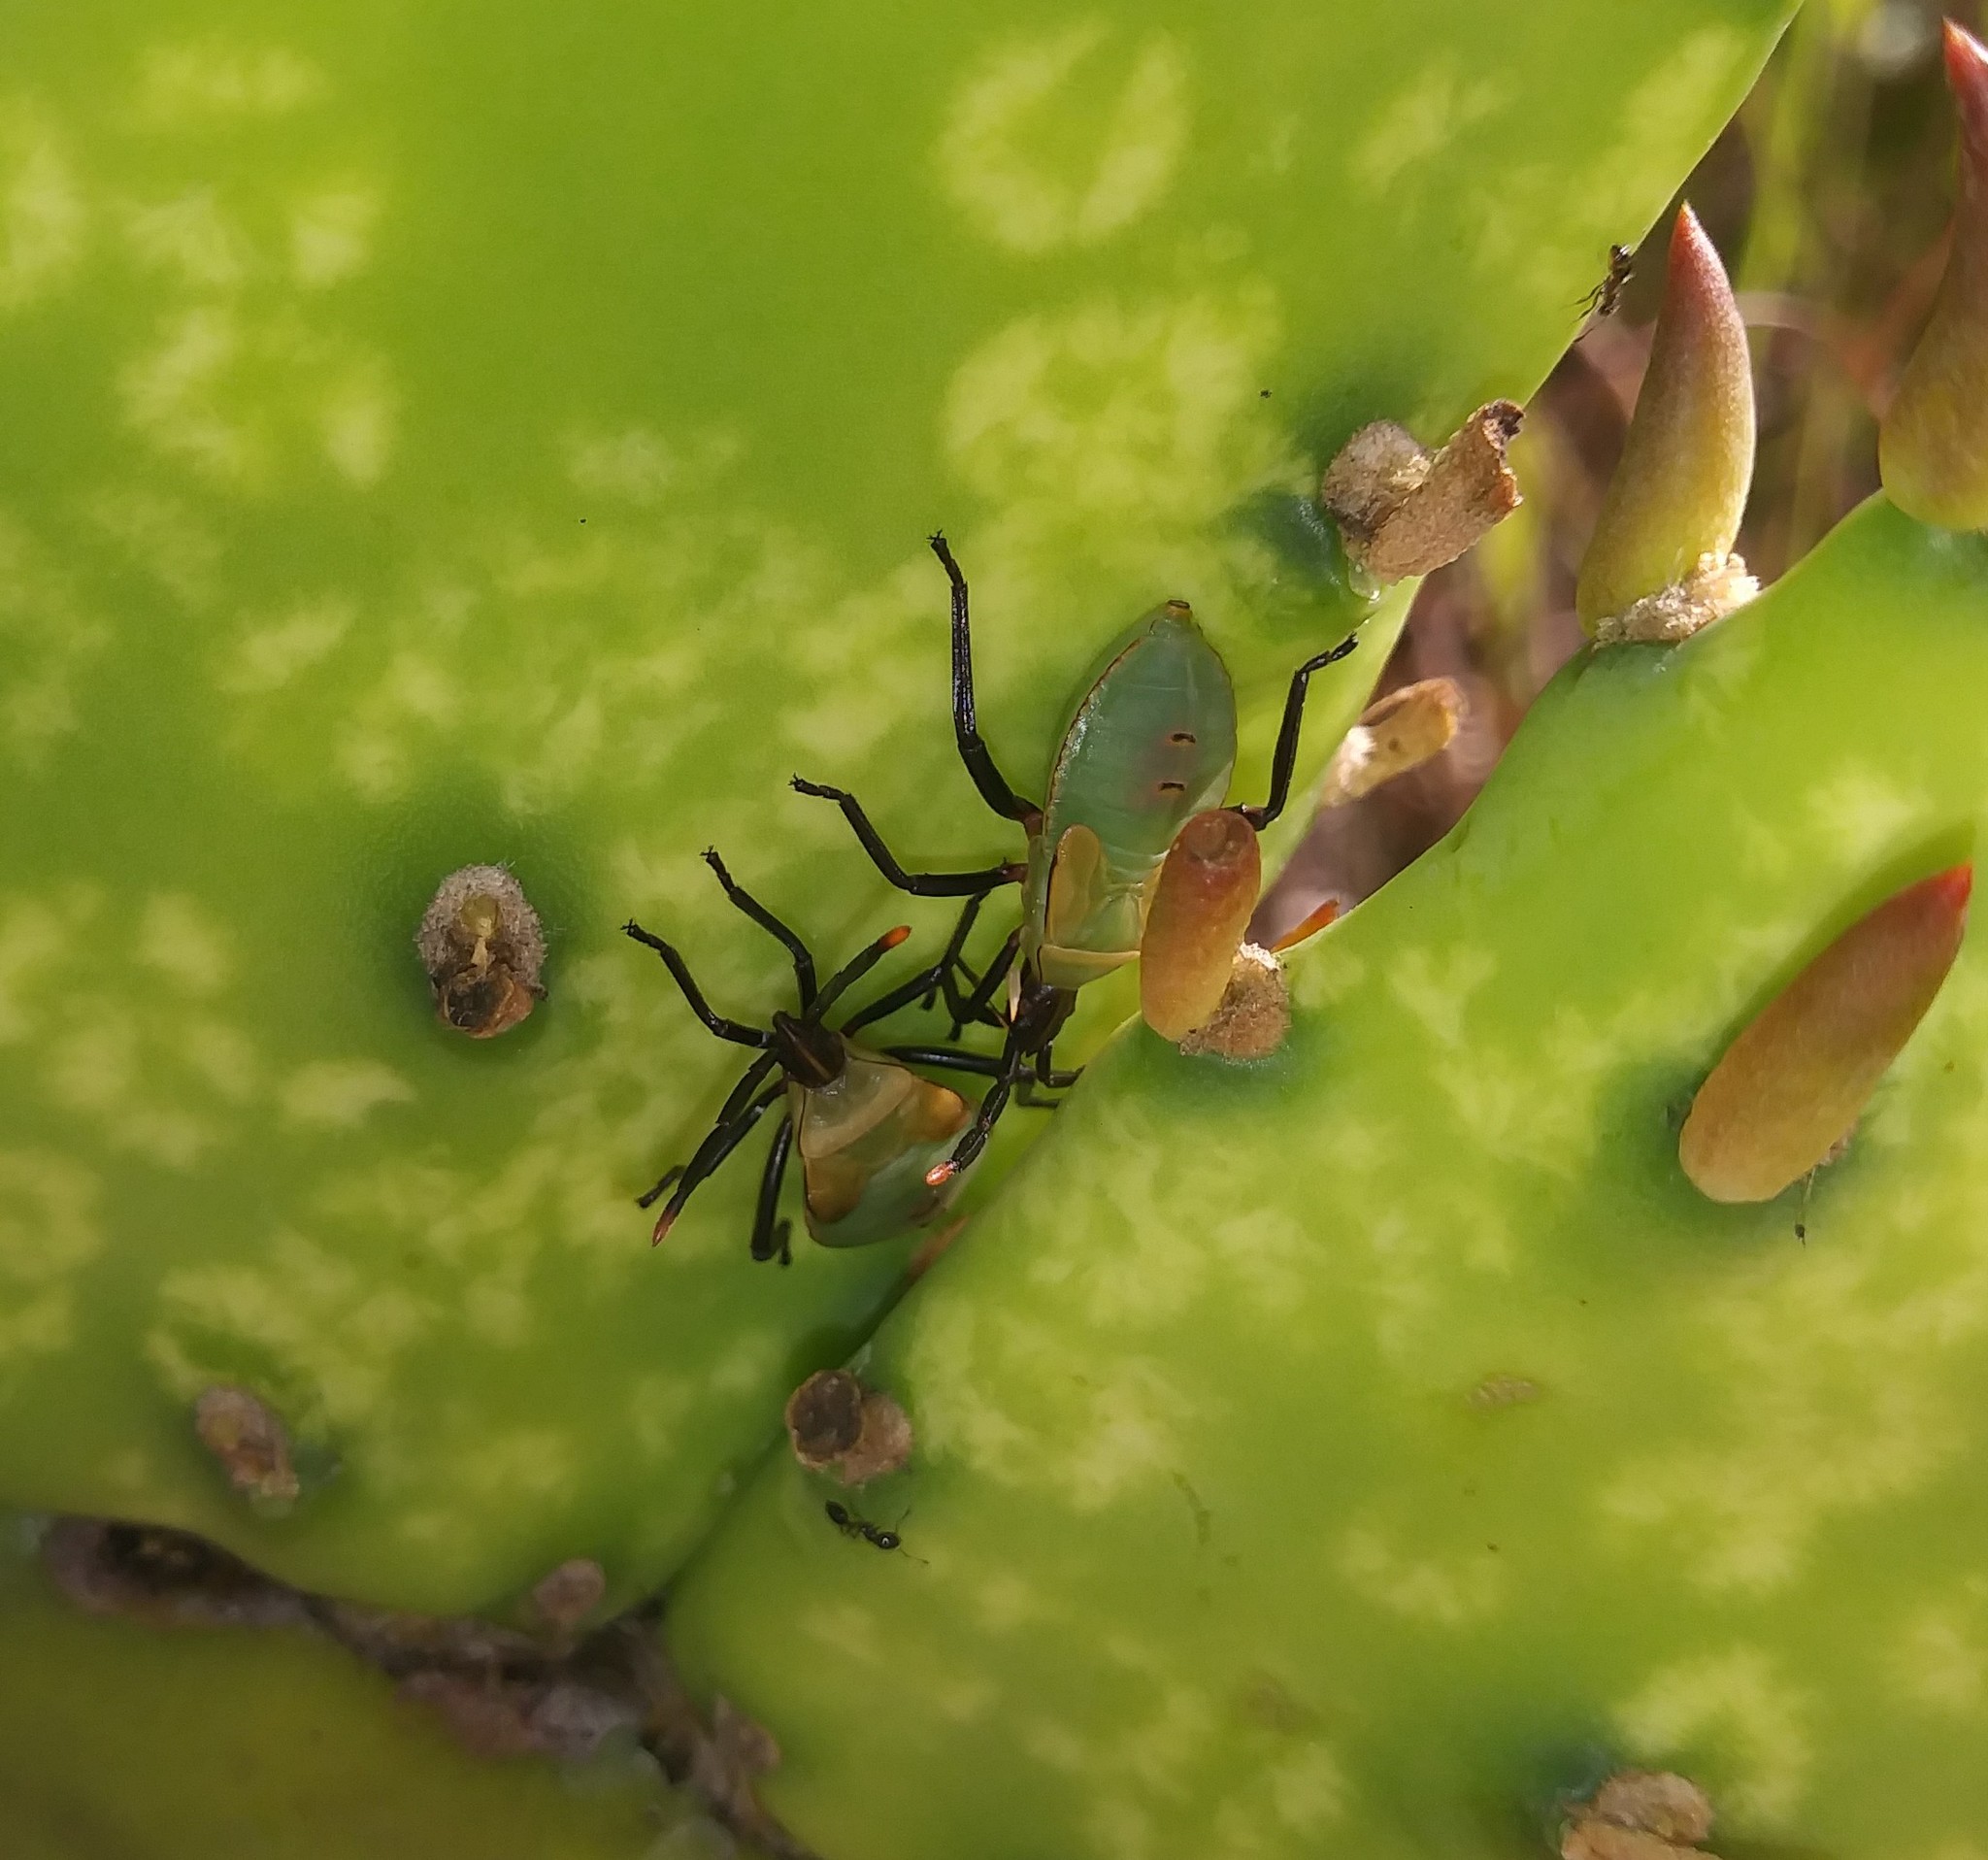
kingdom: Animalia
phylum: Arthropoda
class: Insecta
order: Hemiptera
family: Coreidae
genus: Chelinidea
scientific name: Chelinidea vittiger
